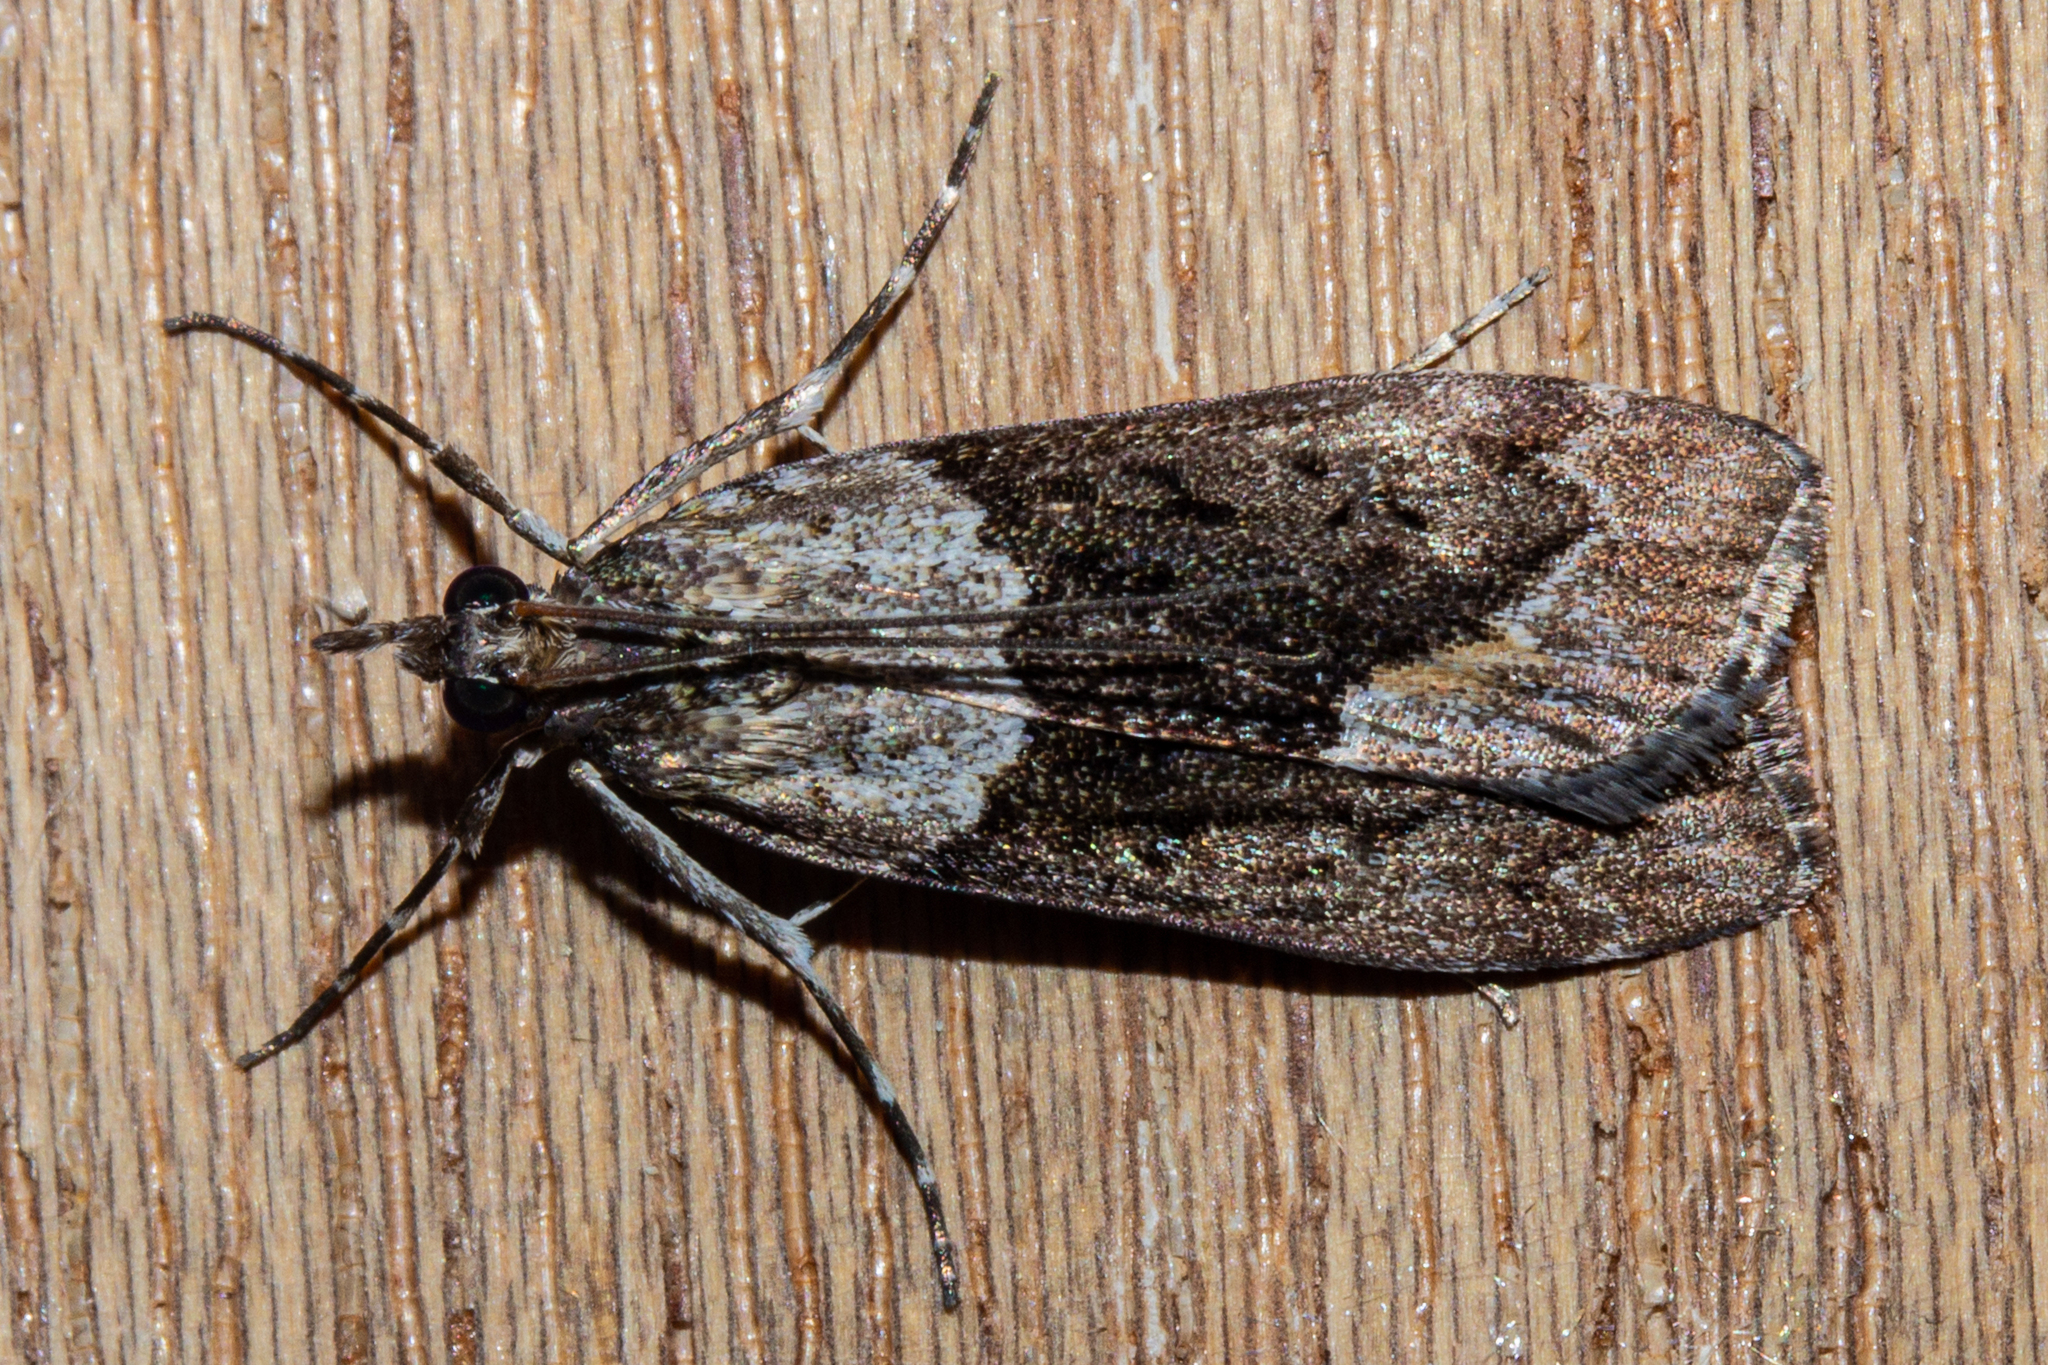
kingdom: Animalia
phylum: Arthropoda
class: Insecta
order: Lepidoptera
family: Crambidae
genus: Eudonia
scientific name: Eudonia submarginalis
